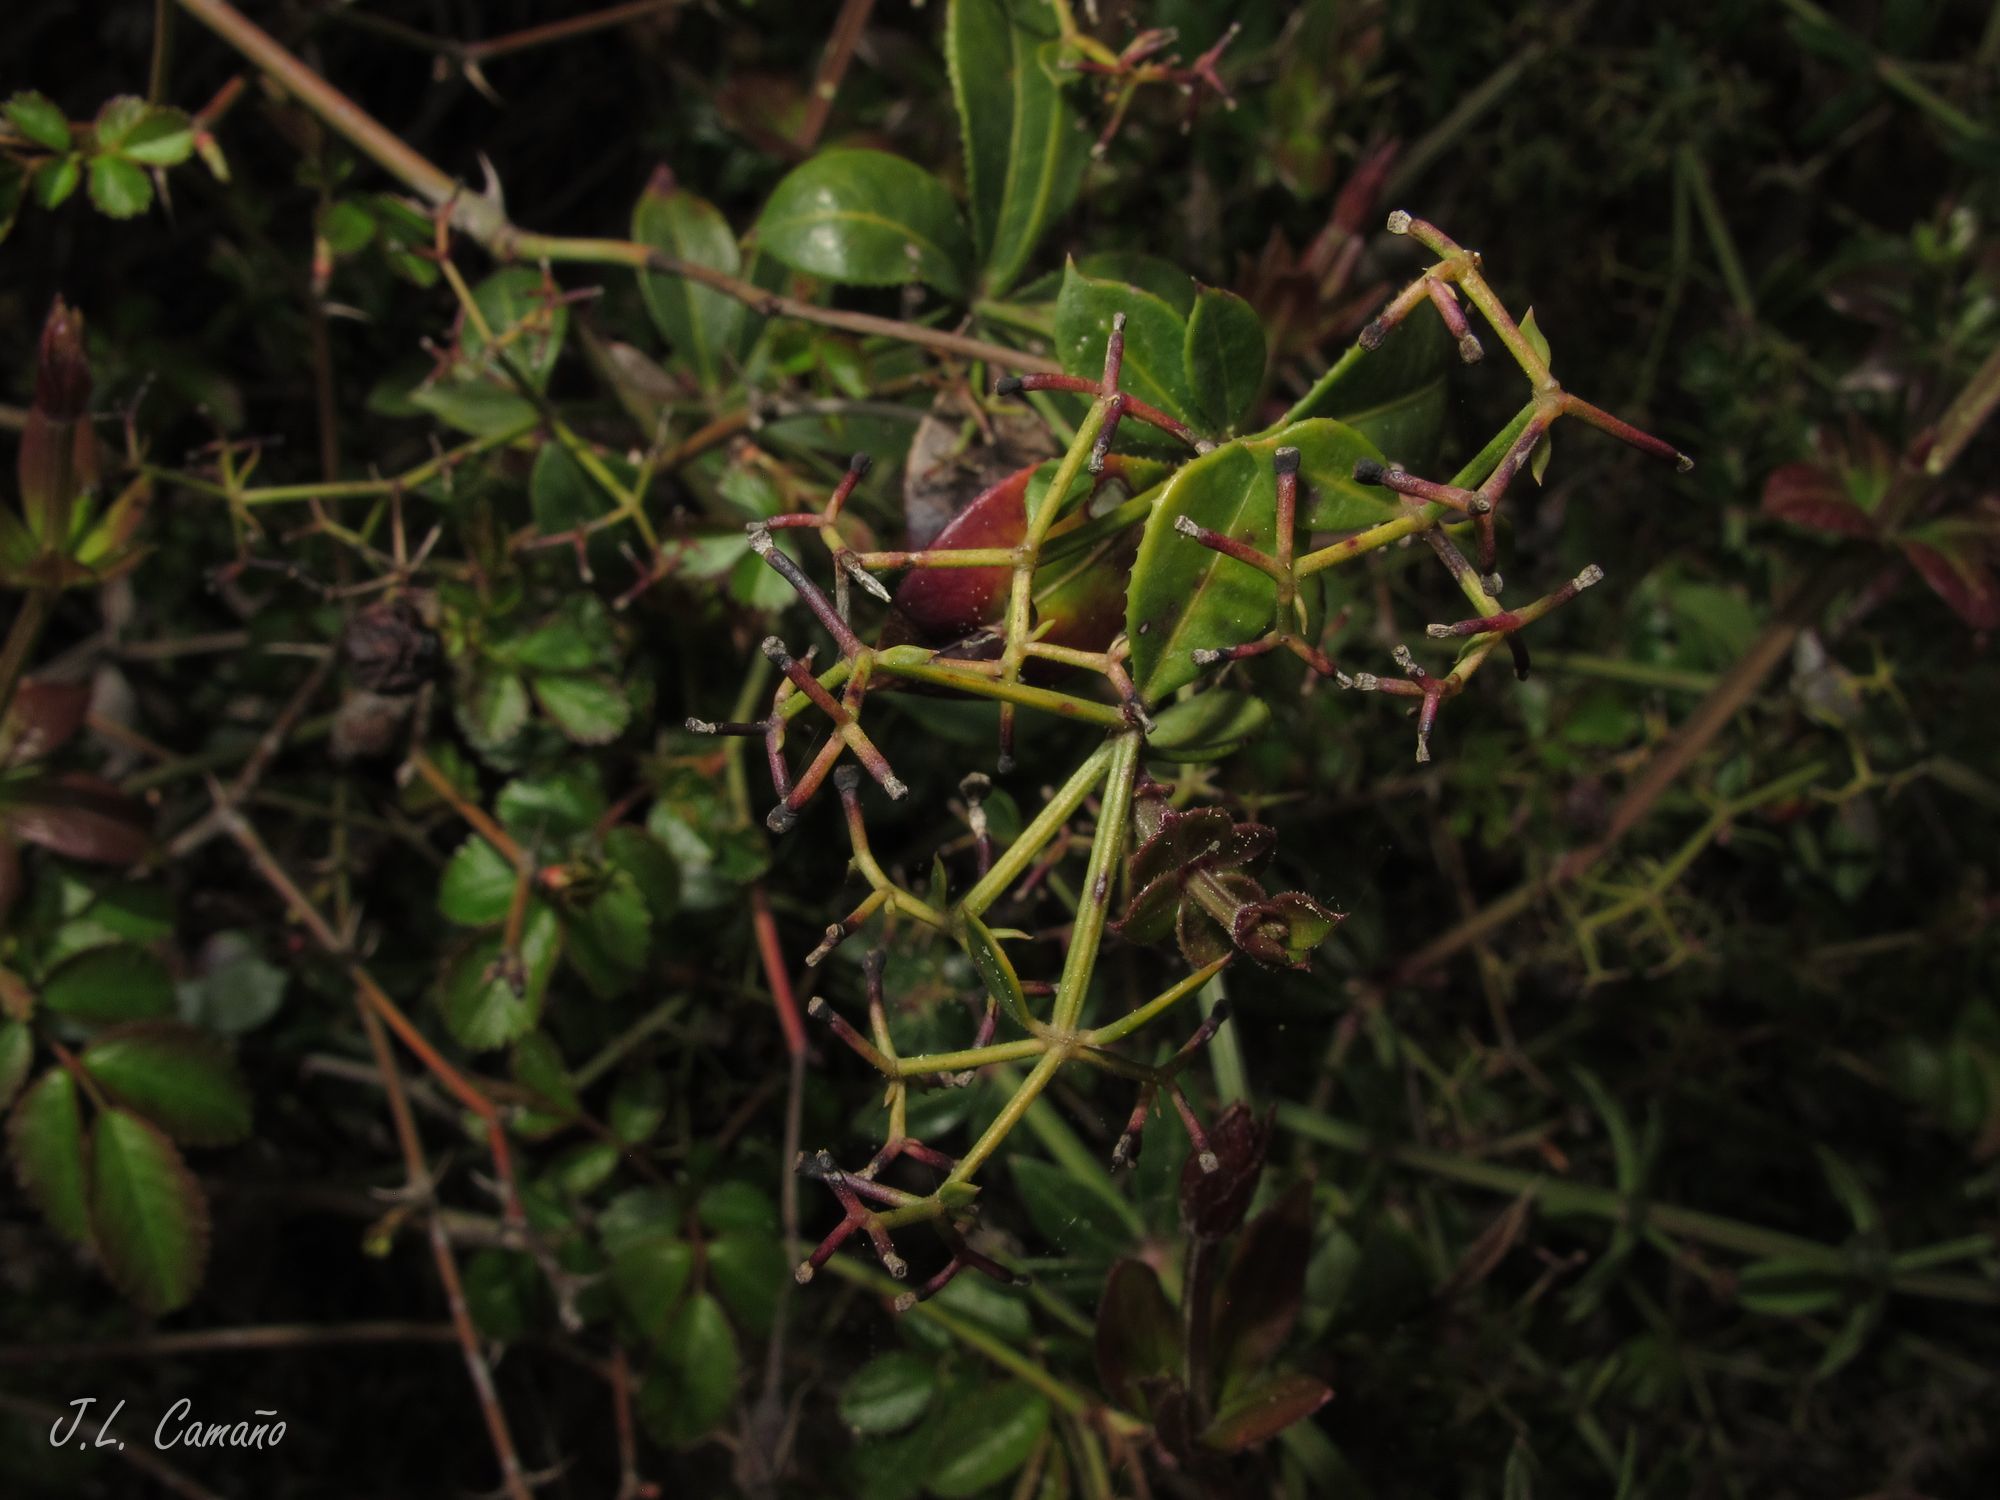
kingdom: Plantae
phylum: Tracheophyta
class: Magnoliopsida
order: Gentianales
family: Rubiaceae
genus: Rubia
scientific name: Rubia peregrina
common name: Wild madder
